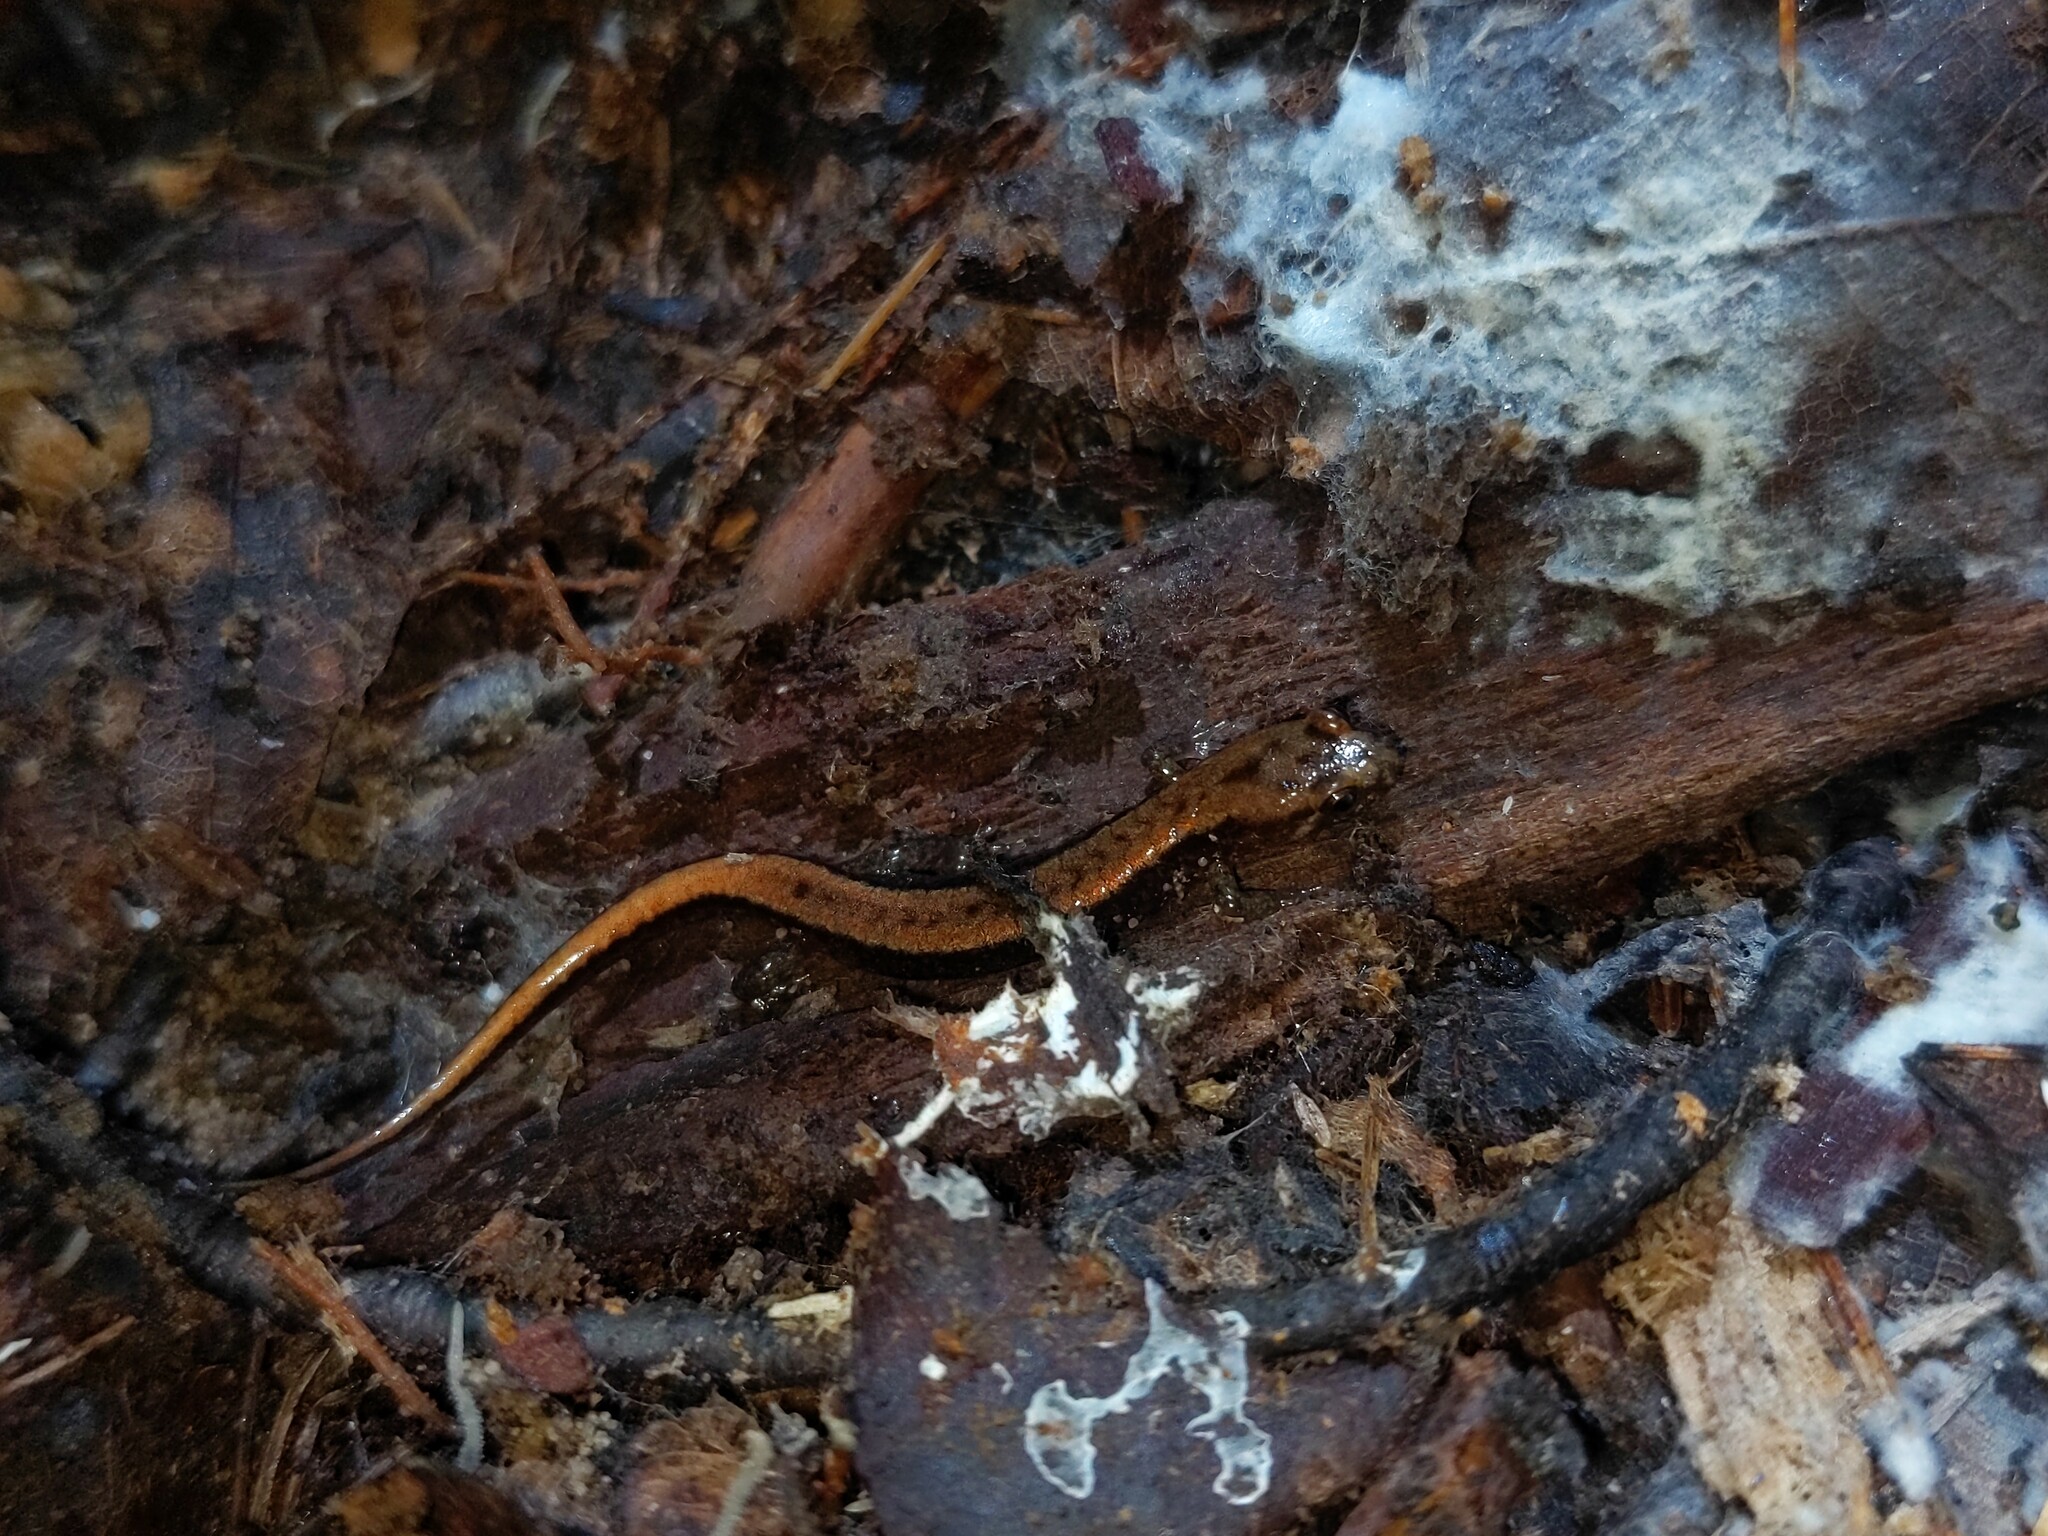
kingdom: Animalia
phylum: Chordata
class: Amphibia
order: Caudata
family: Plethodontidae
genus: Desmognathus
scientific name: Desmognathus ochrophaeus
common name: Allegheny mountain dusky salamander
